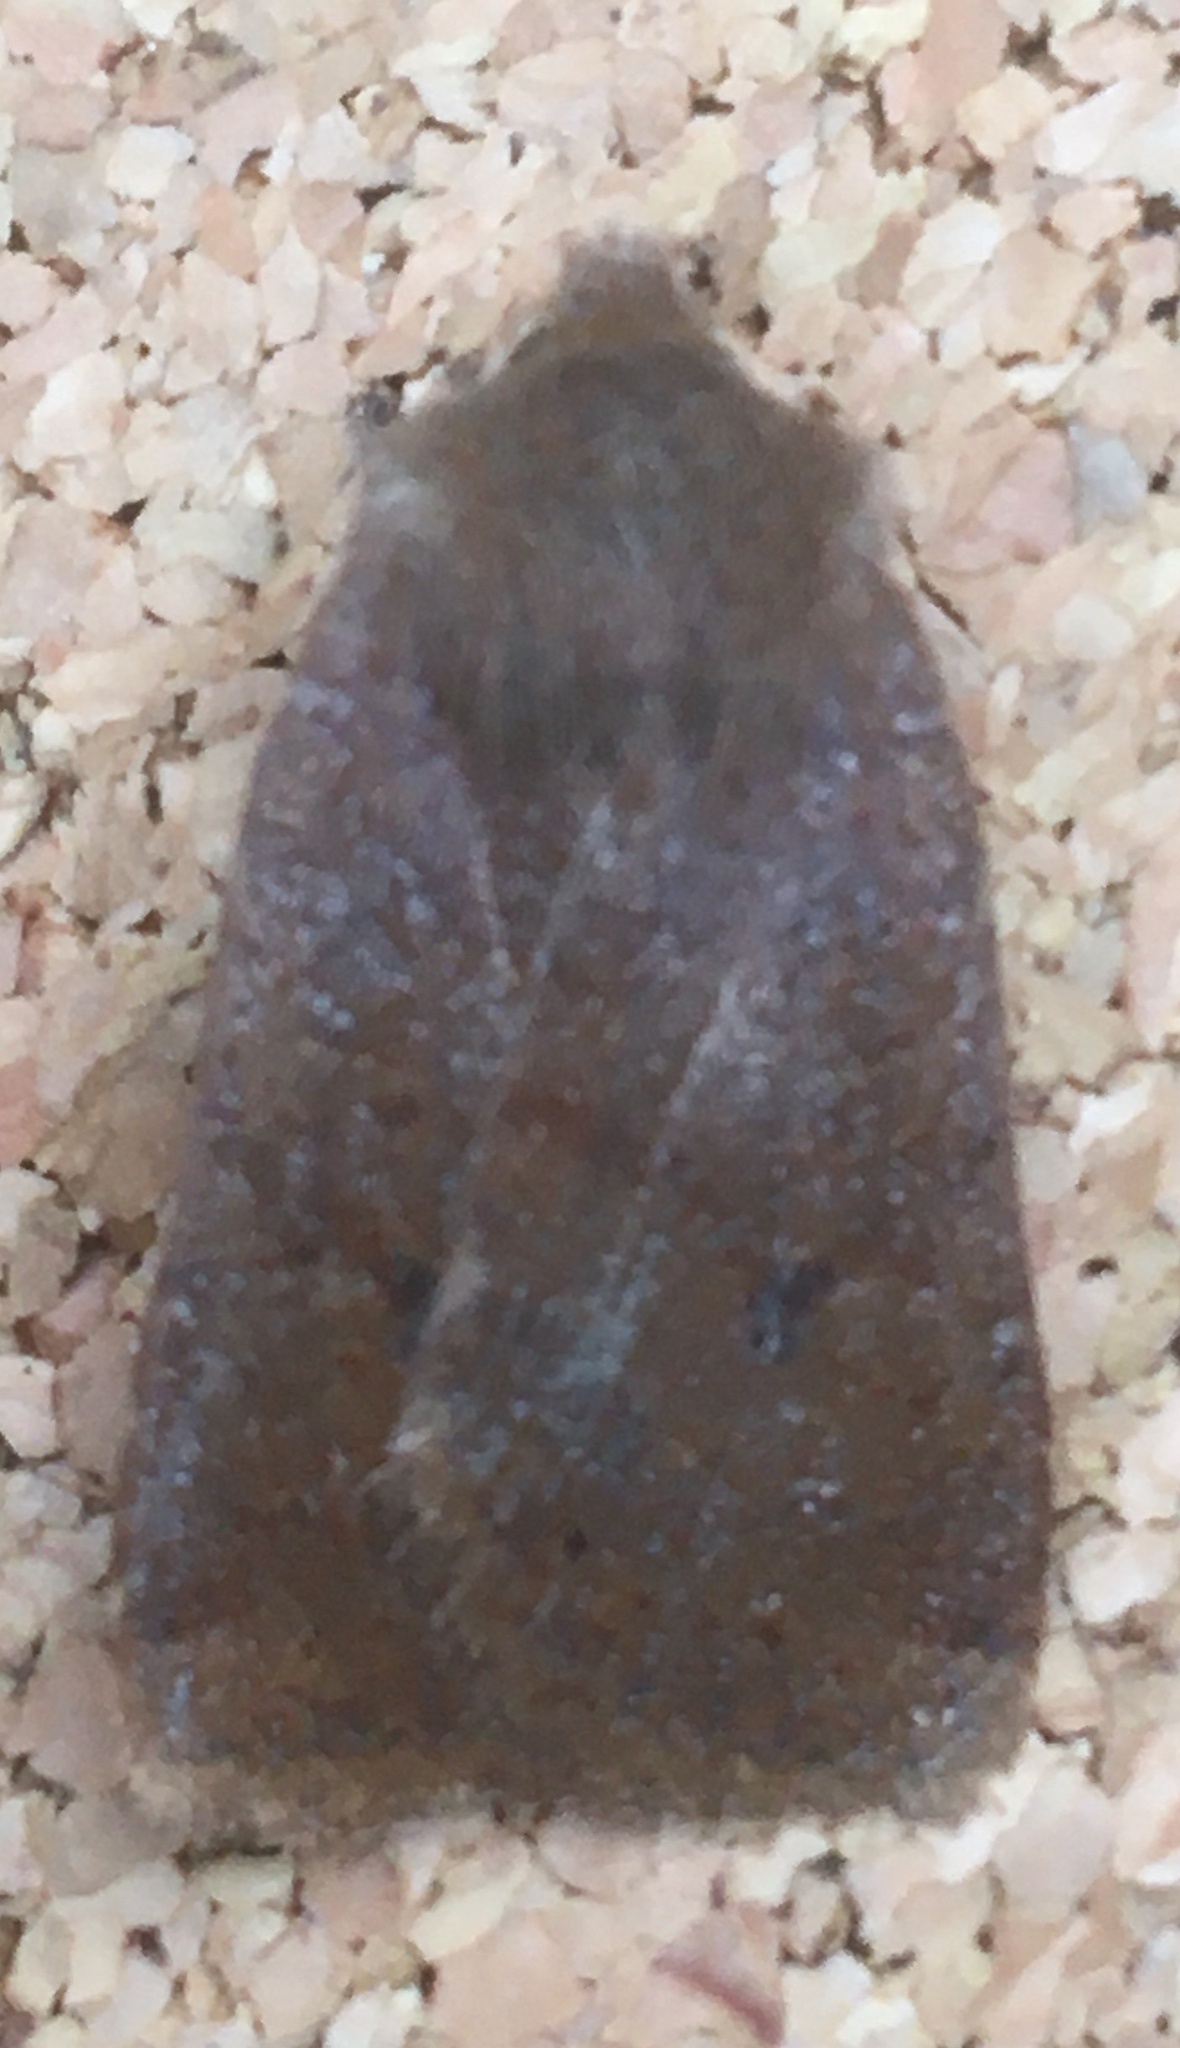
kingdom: Animalia
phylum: Arthropoda
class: Insecta
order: Lepidoptera
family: Noctuidae
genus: Conistra
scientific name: Conistra vaccinii
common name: Chestnut
